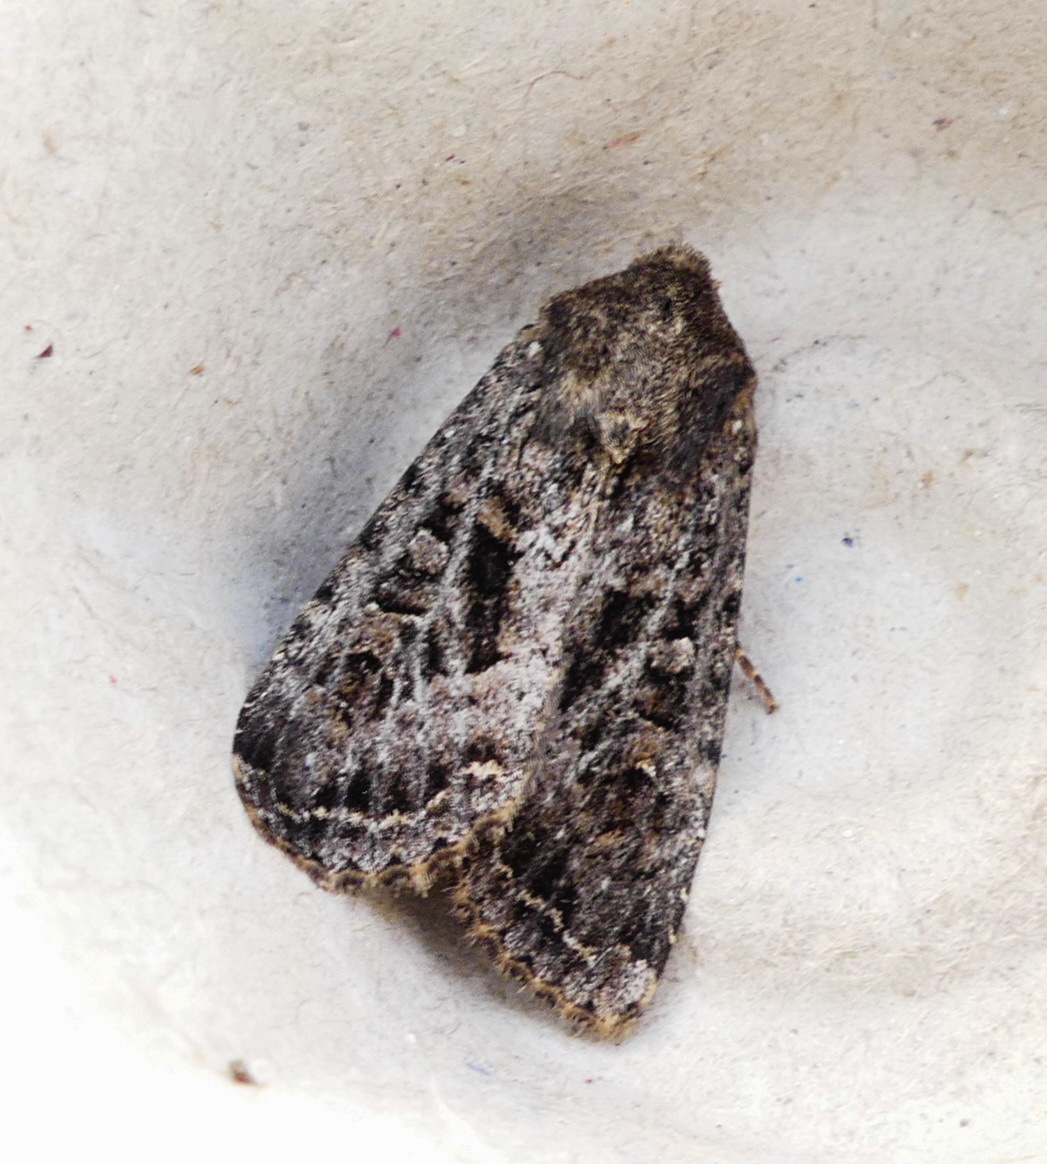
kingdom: Animalia
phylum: Arthropoda
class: Insecta
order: Lepidoptera
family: Noctuidae
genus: Apamea
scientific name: Apamea devastator
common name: Glassy cutworm
